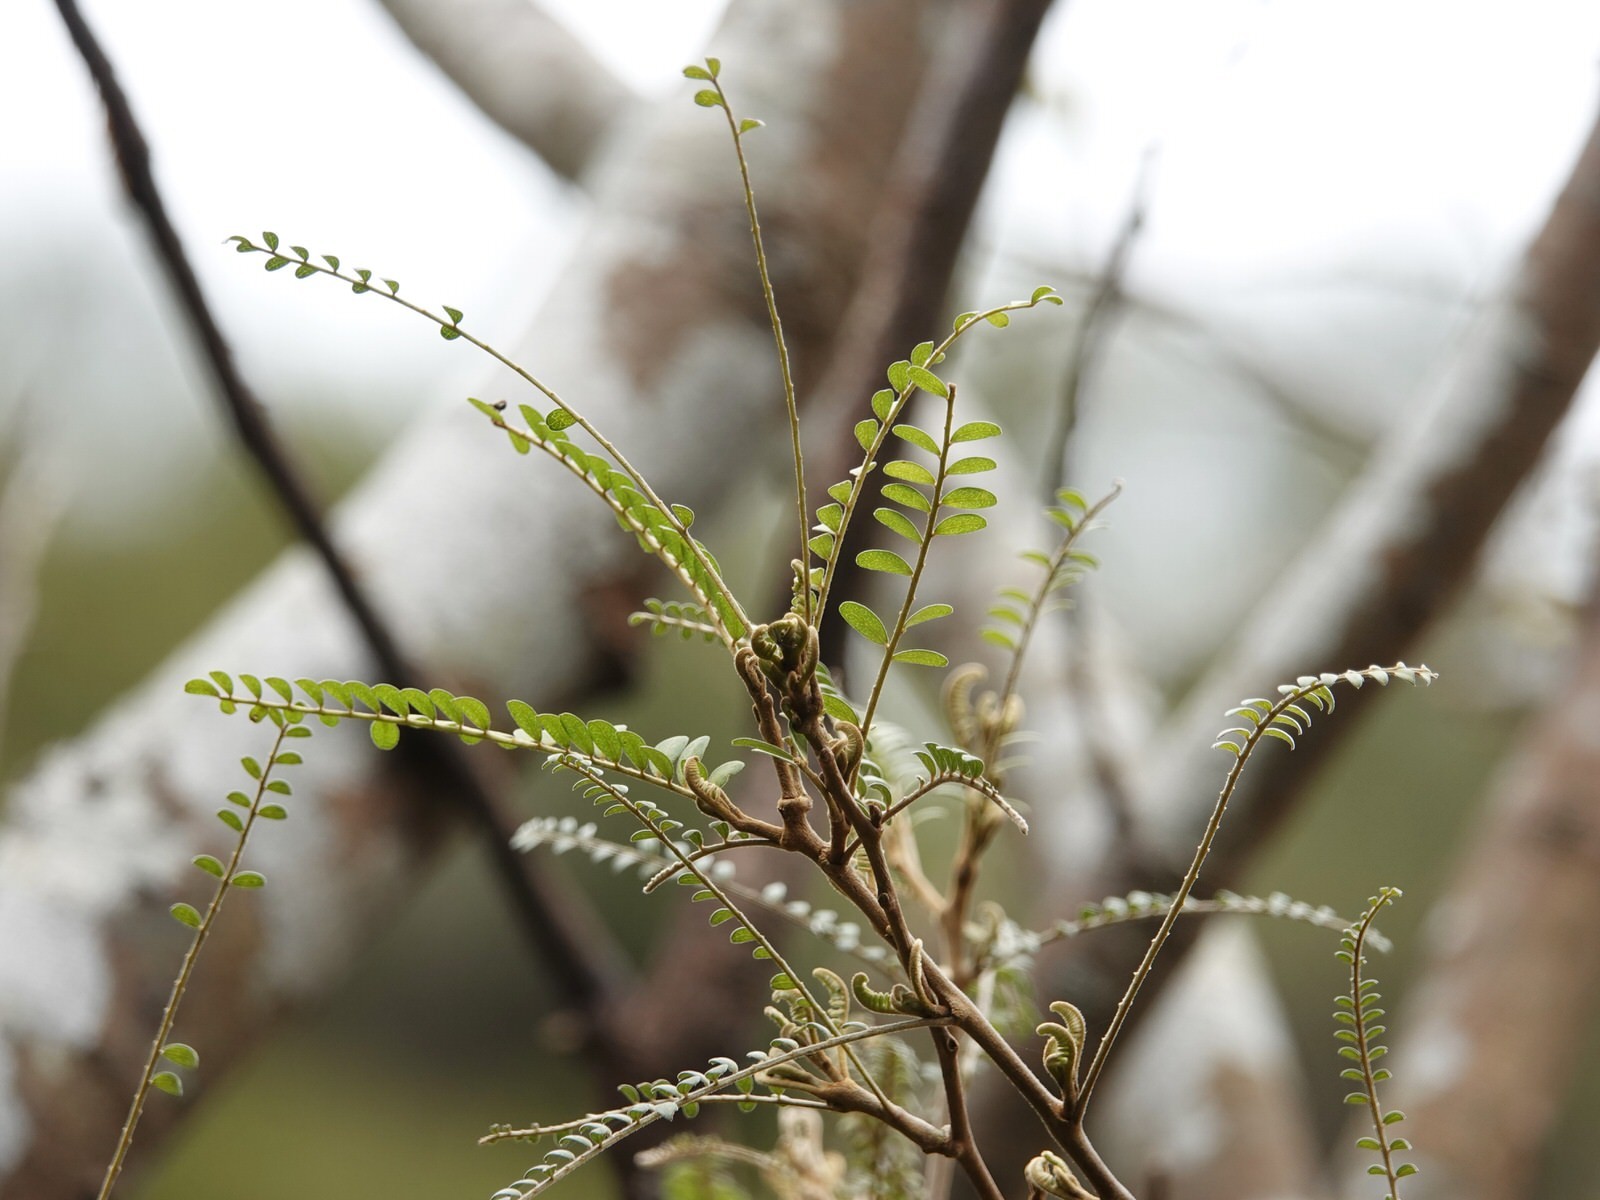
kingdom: Plantae
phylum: Tracheophyta
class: Magnoliopsida
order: Fabales
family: Fabaceae
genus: Sophora
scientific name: Sophora chathamica
